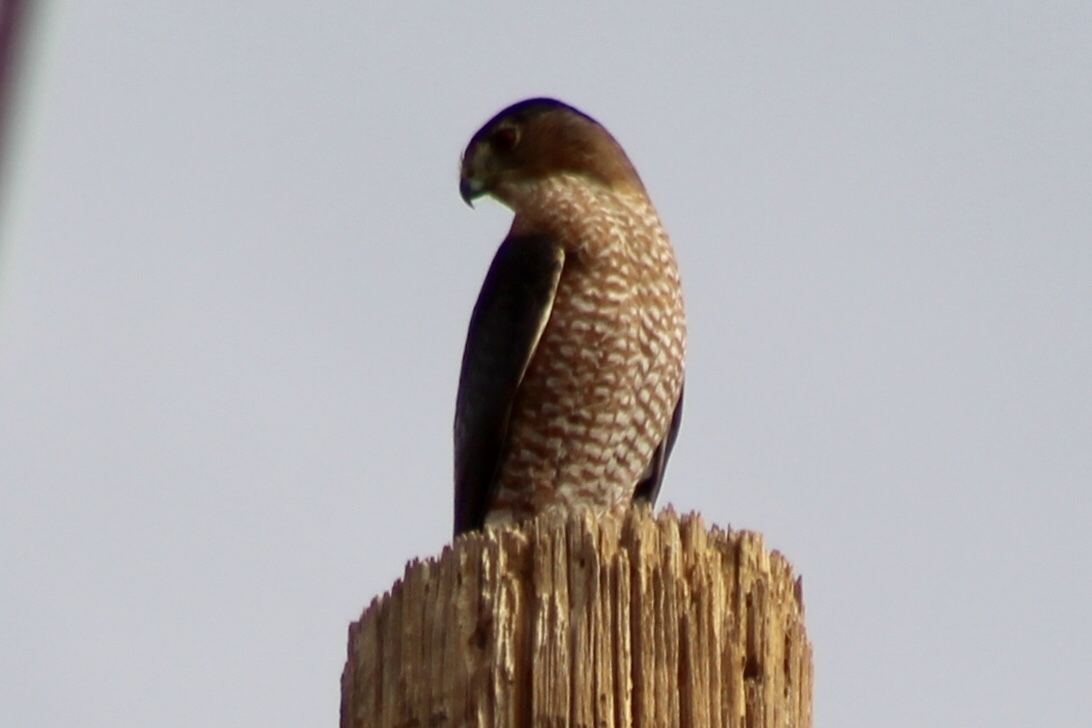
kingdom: Animalia
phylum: Chordata
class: Aves
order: Accipitriformes
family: Accipitridae
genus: Accipiter
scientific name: Accipiter cooperii
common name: Cooper's hawk
